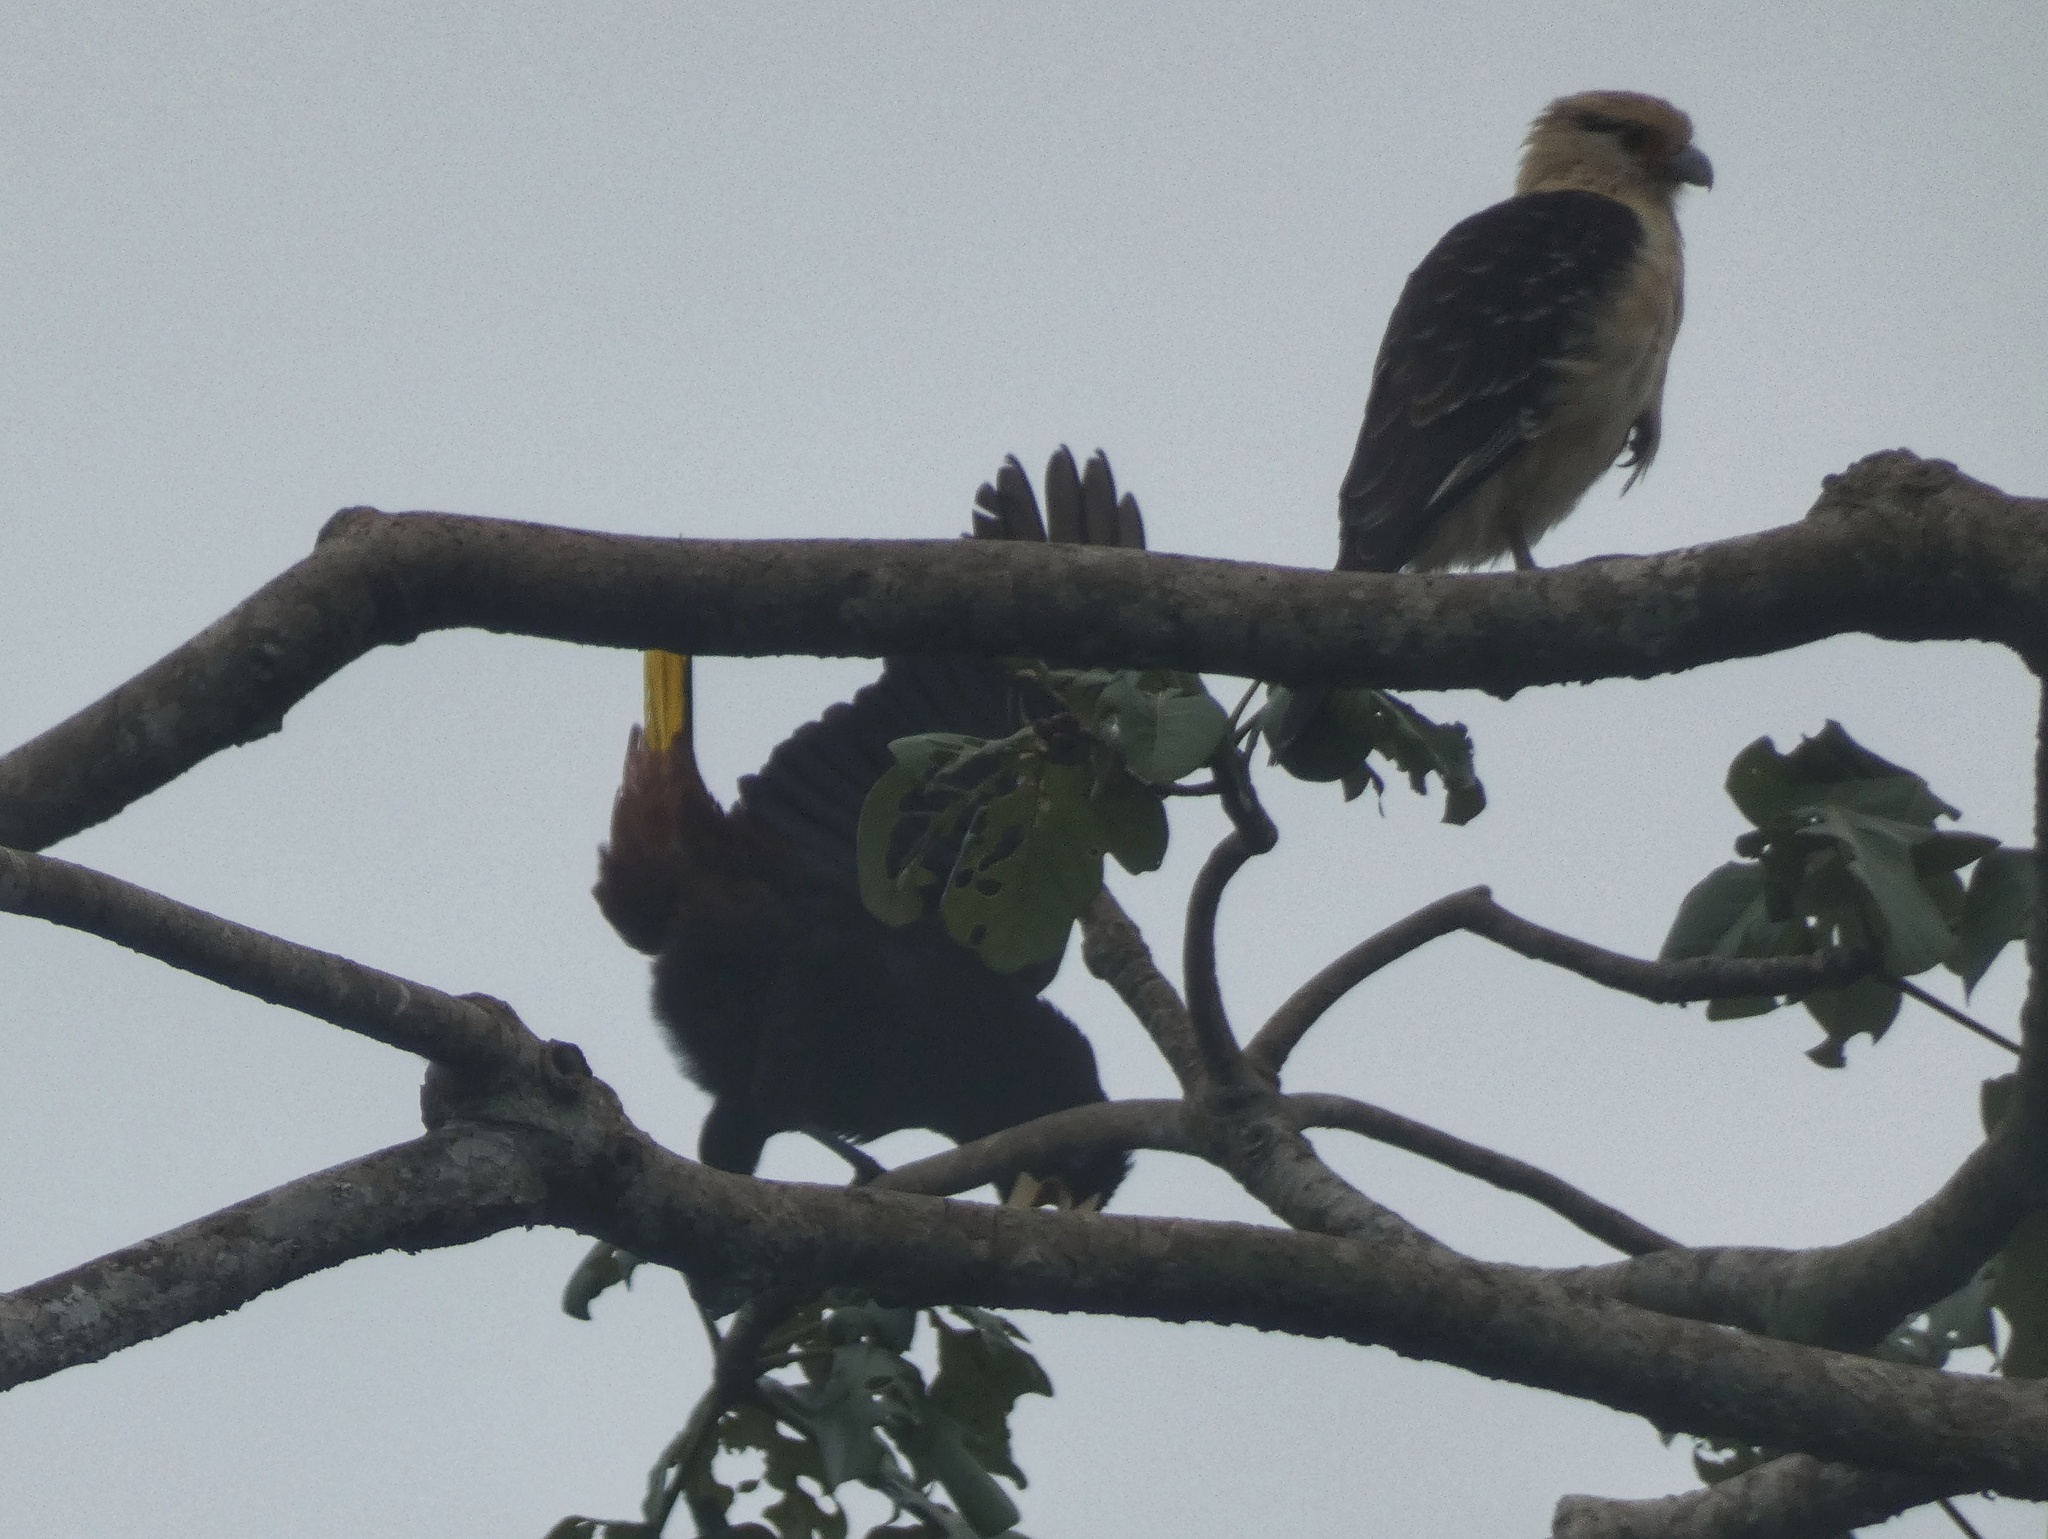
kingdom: Animalia
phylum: Chordata
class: Aves
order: Passeriformes
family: Icteridae
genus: Psarocolius
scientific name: Psarocolius decumanus
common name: Crested oropendola
